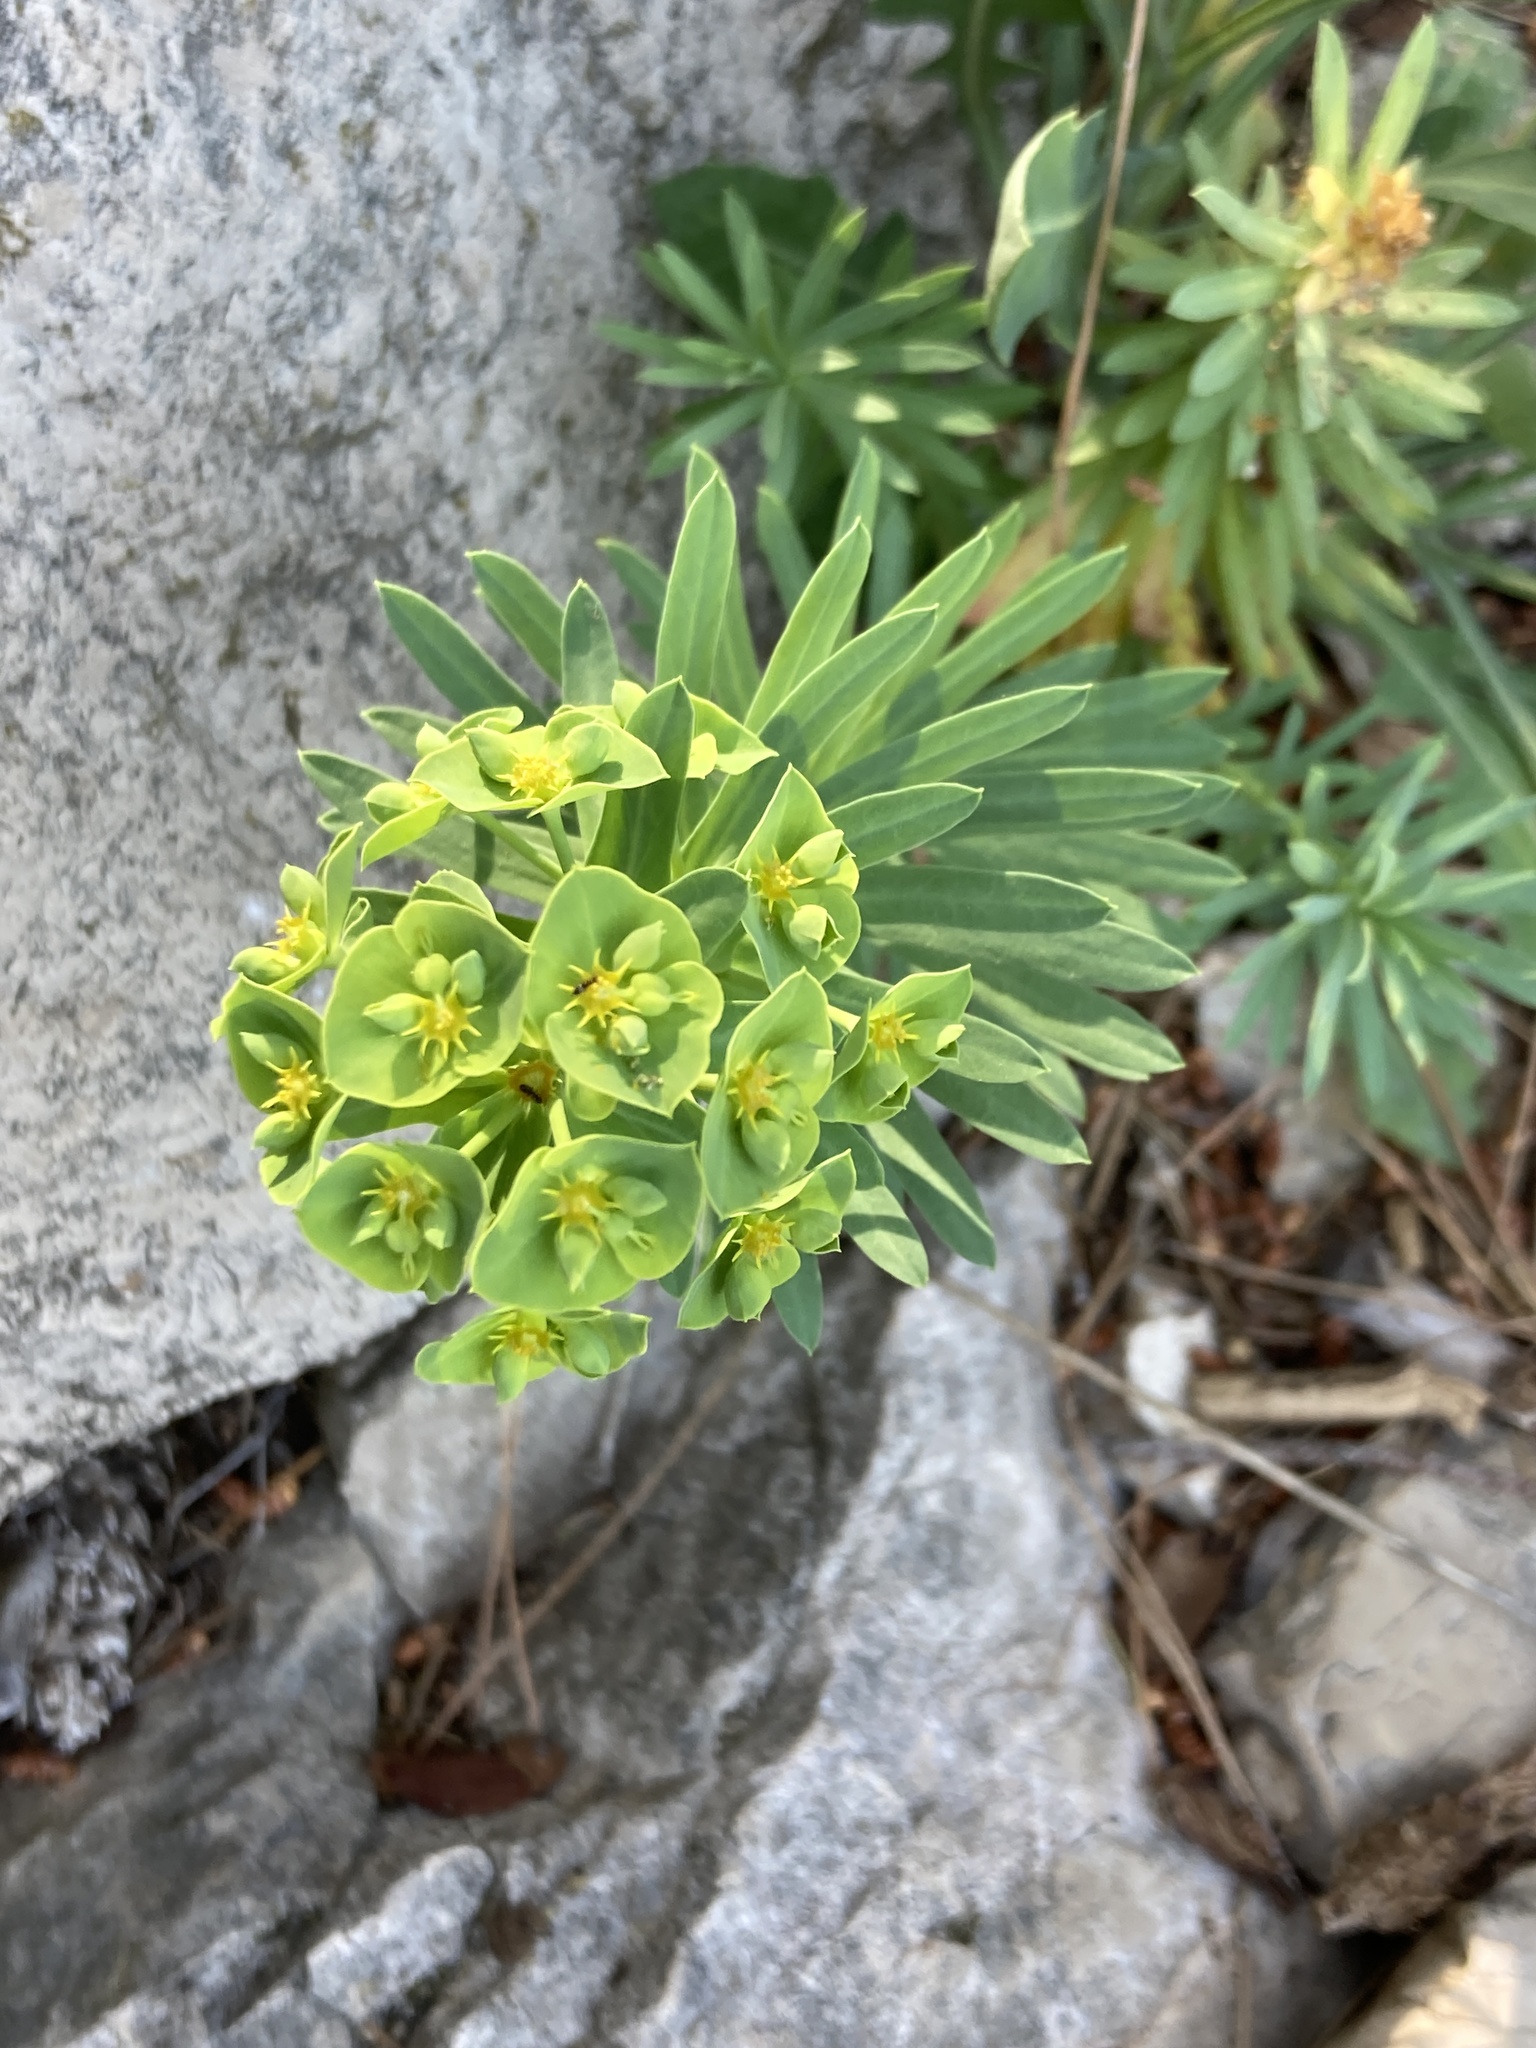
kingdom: Plantae
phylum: Tracheophyta
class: Magnoliopsida
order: Malpighiales
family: Euphorbiaceae
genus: Euphorbia
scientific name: Euphorbia segetalis
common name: Corn spurge
